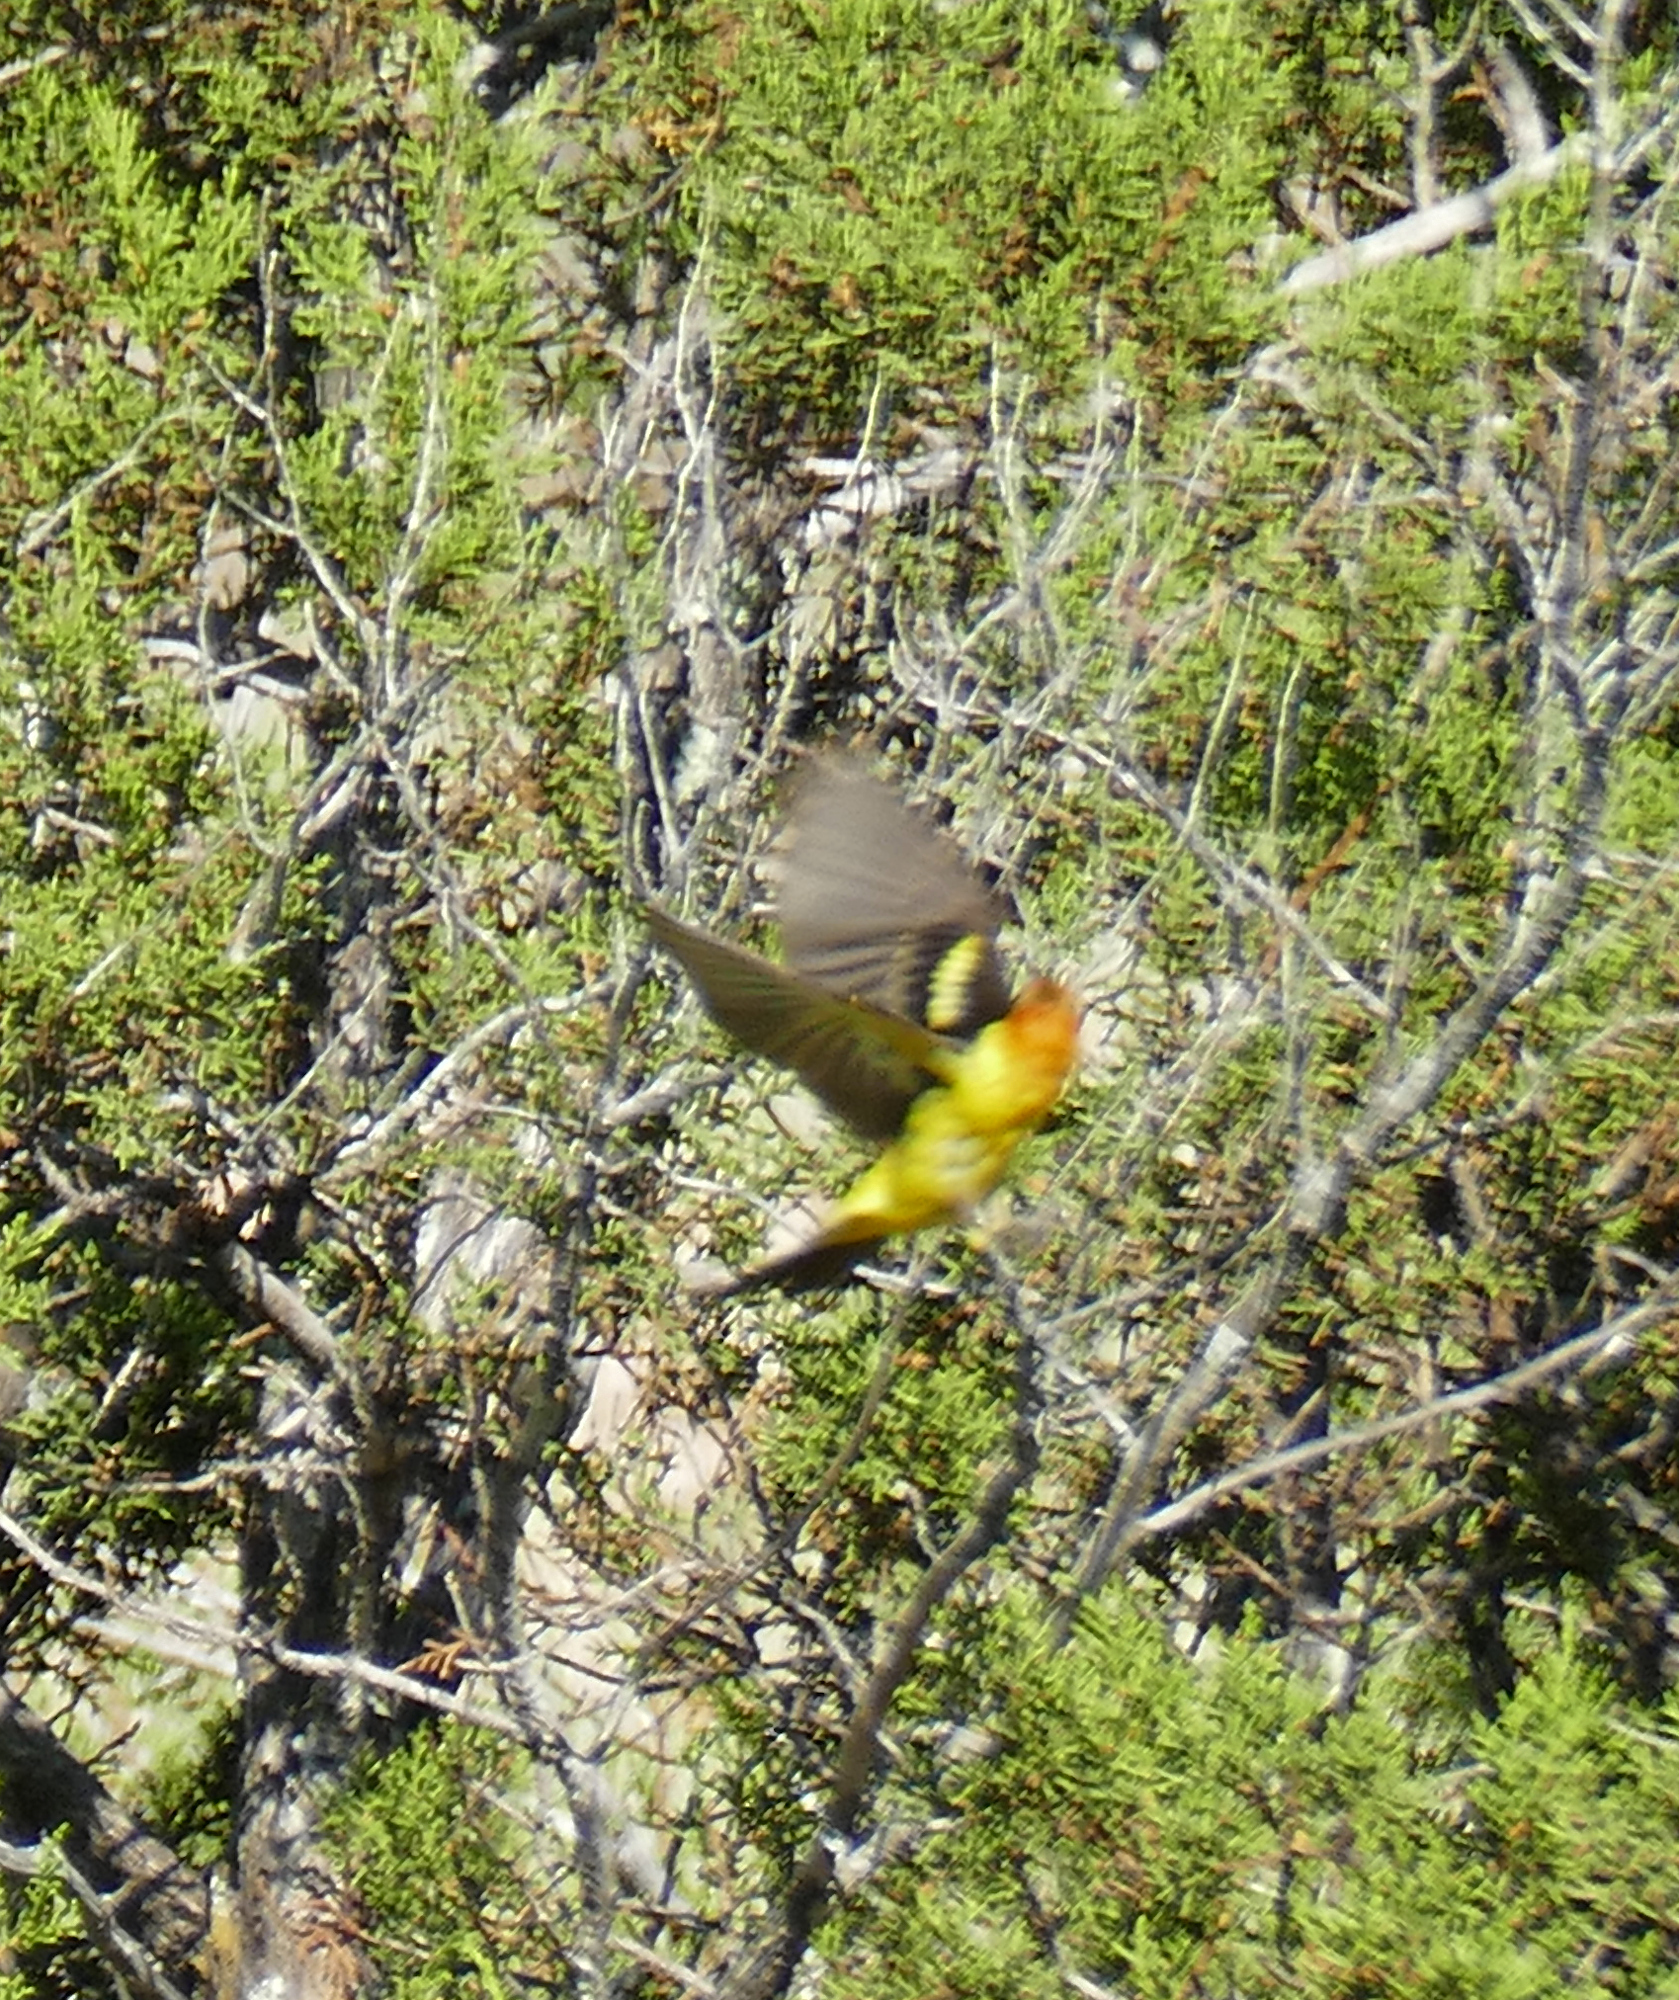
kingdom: Animalia
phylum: Chordata
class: Aves
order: Passeriformes
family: Cardinalidae
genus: Piranga
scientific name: Piranga ludoviciana
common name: Western tanager
